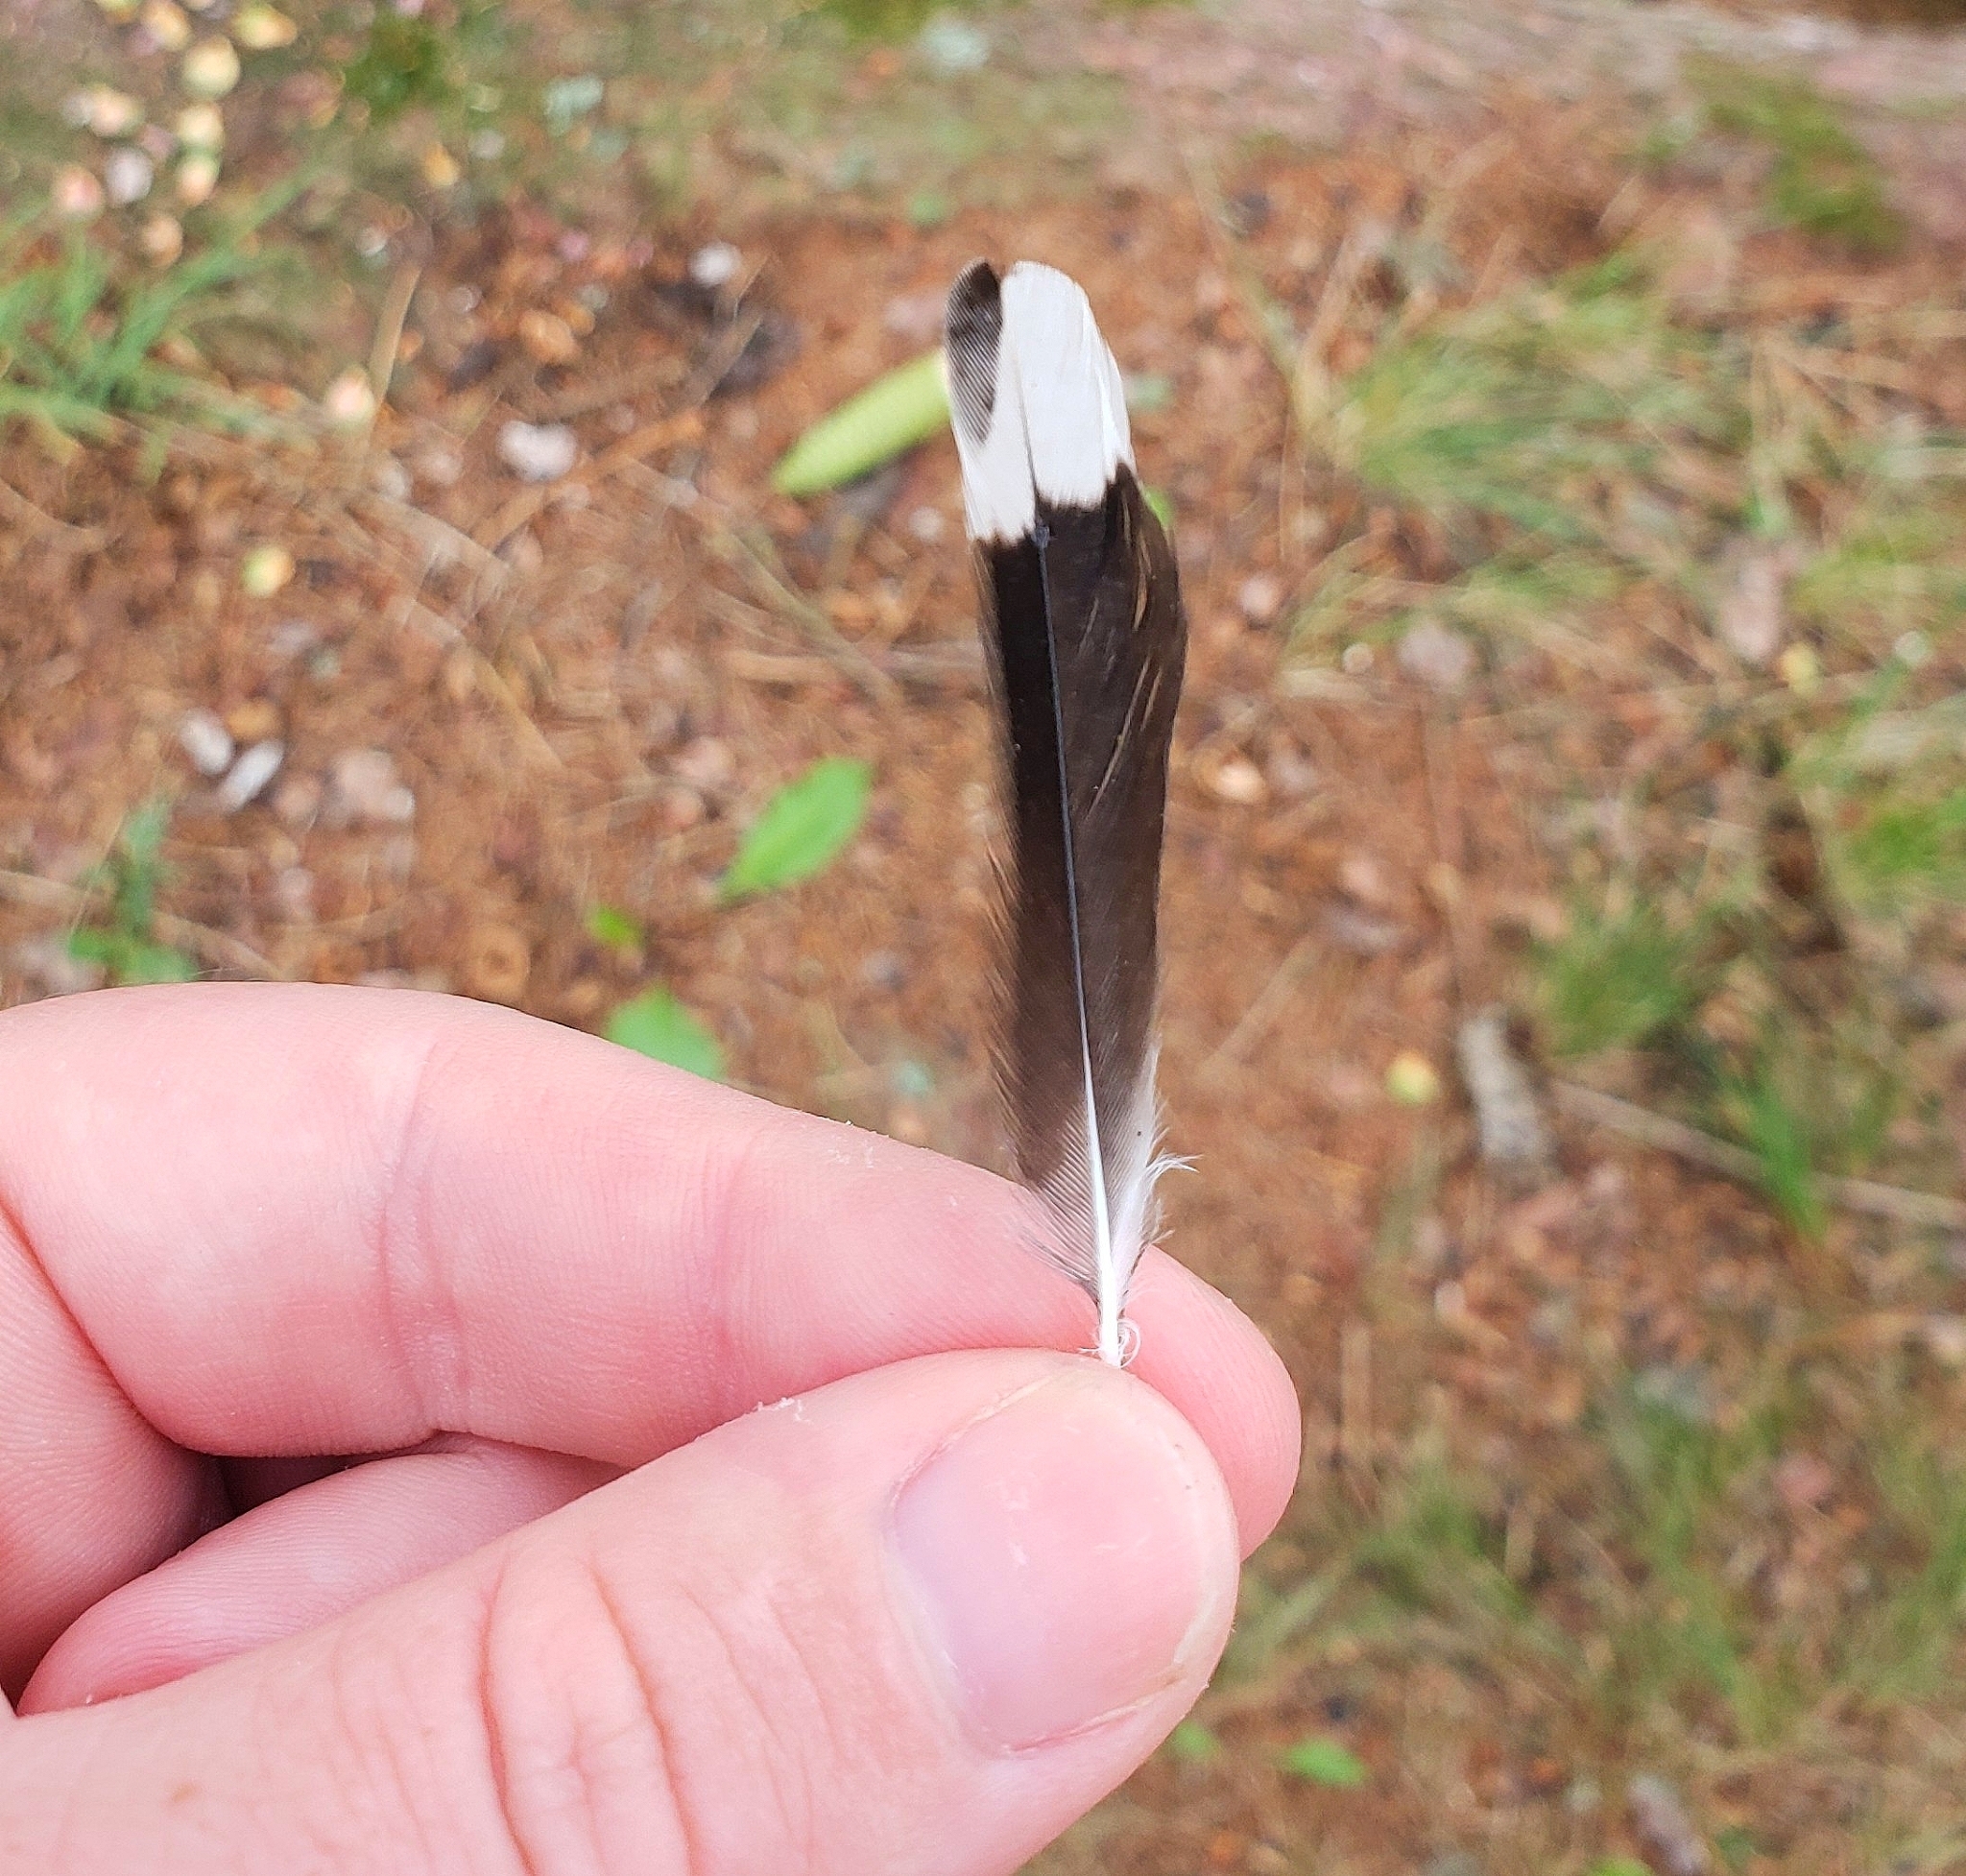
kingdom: Animalia
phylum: Chordata
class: Aves
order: Passeriformes
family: Sittidae
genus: Sitta
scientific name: Sitta carolinensis
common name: White-breasted nuthatch
